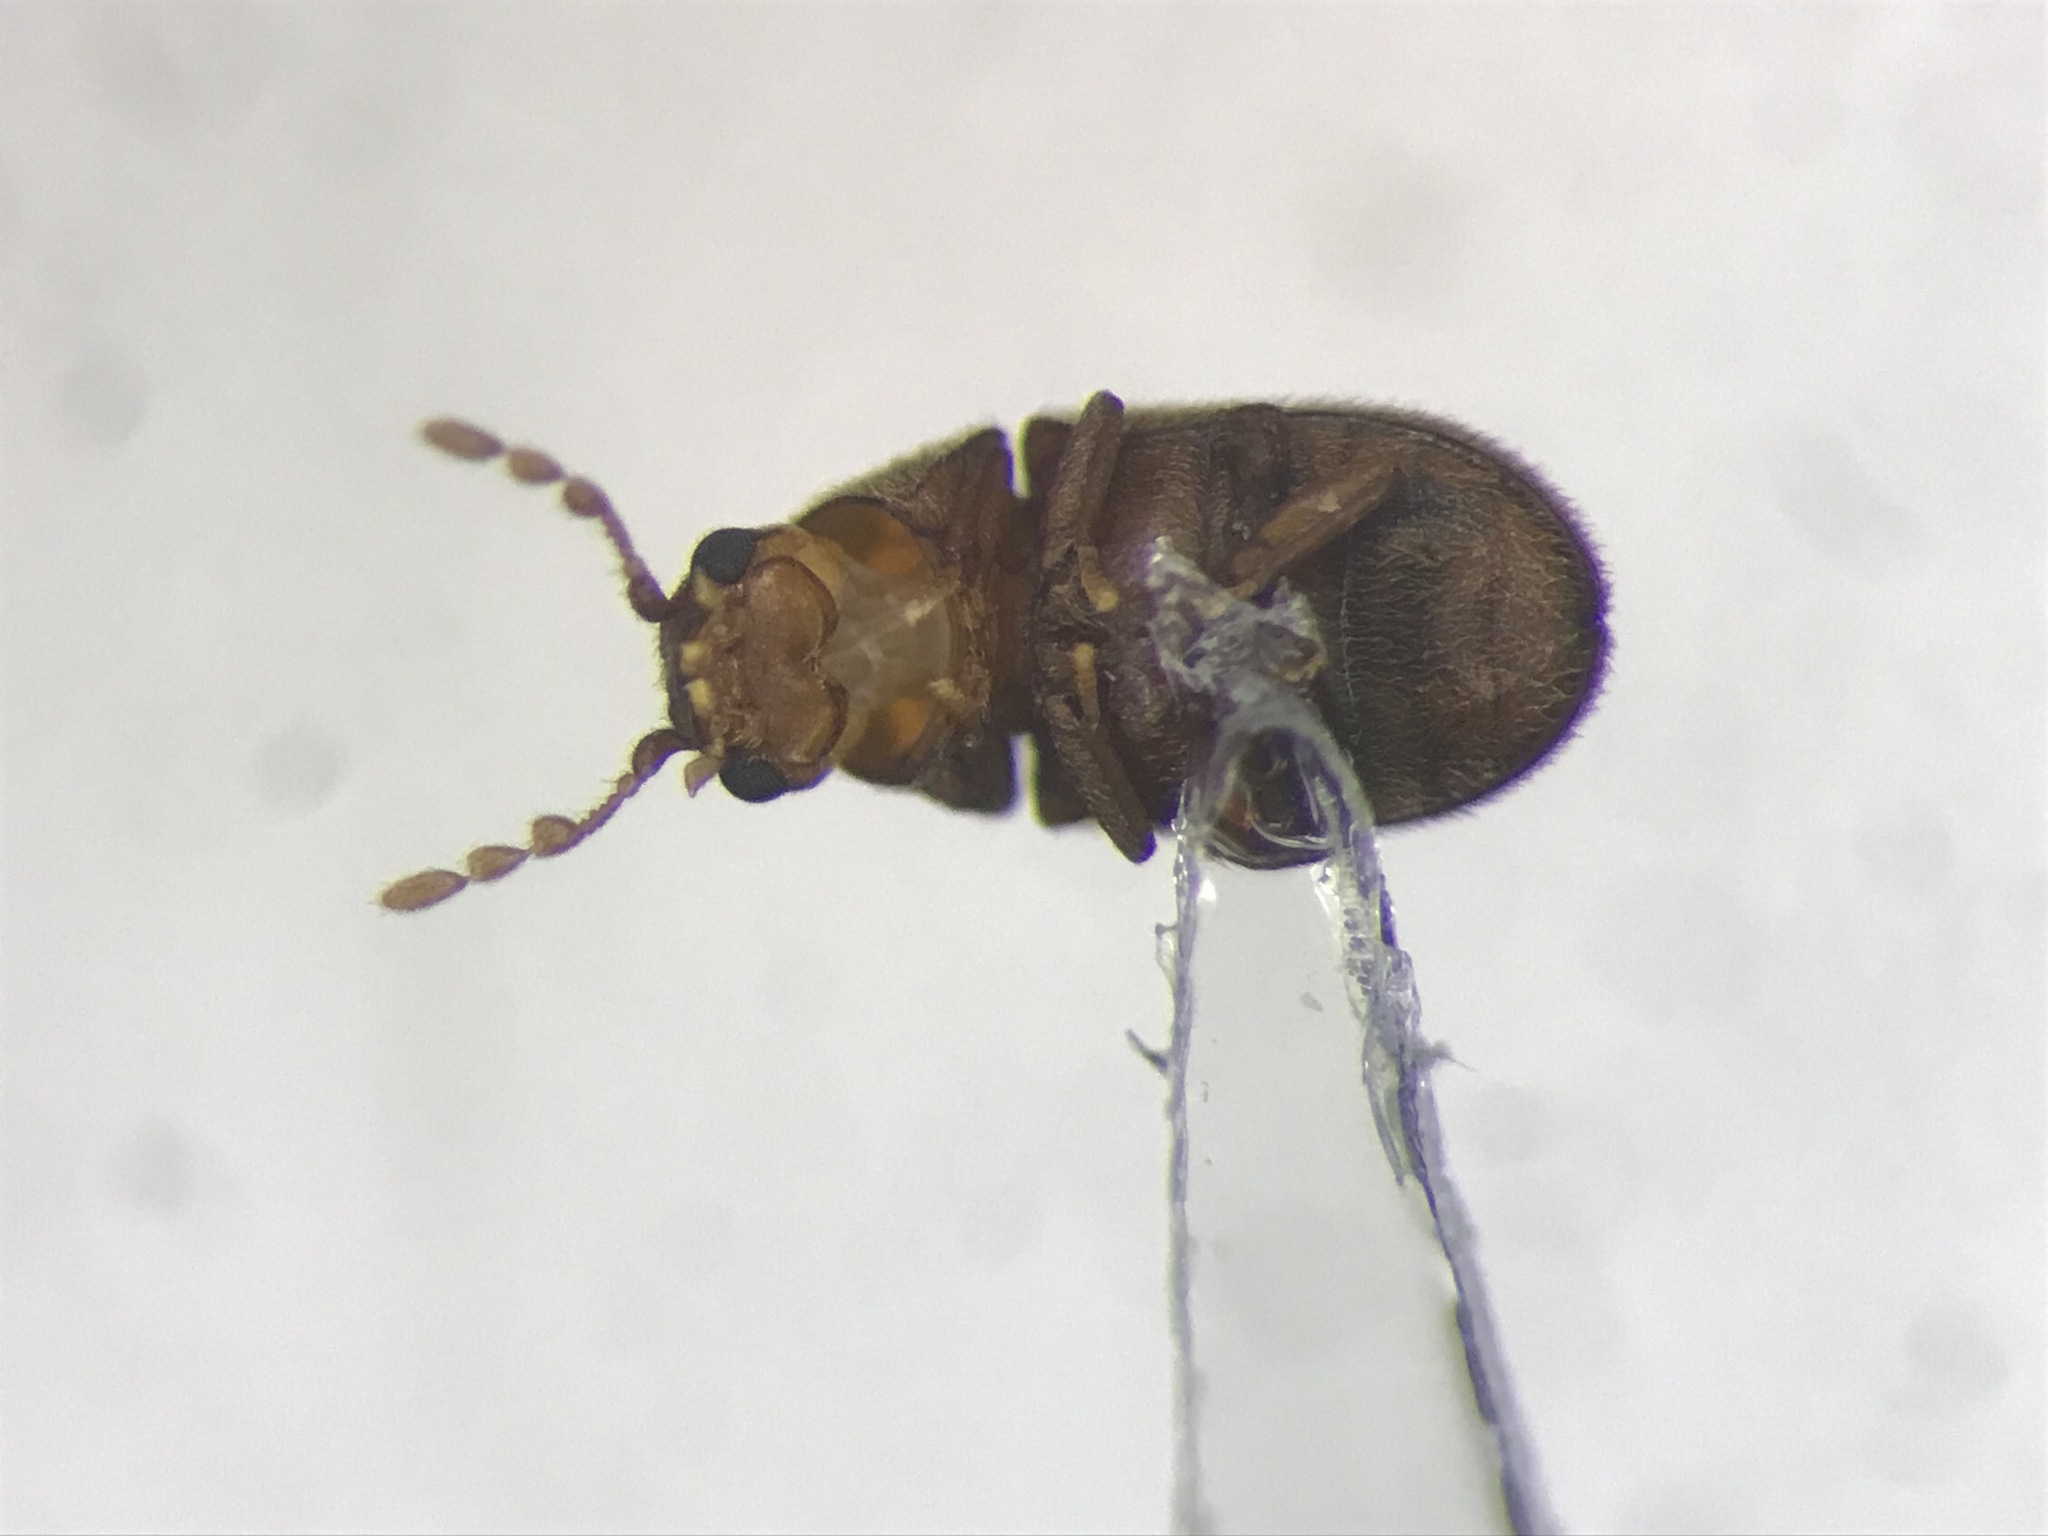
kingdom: Animalia
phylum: Arthropoda
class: Insecta
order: Coleoptera
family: Anobiidae
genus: Sculptotheca
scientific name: Sculptotheca puberula
